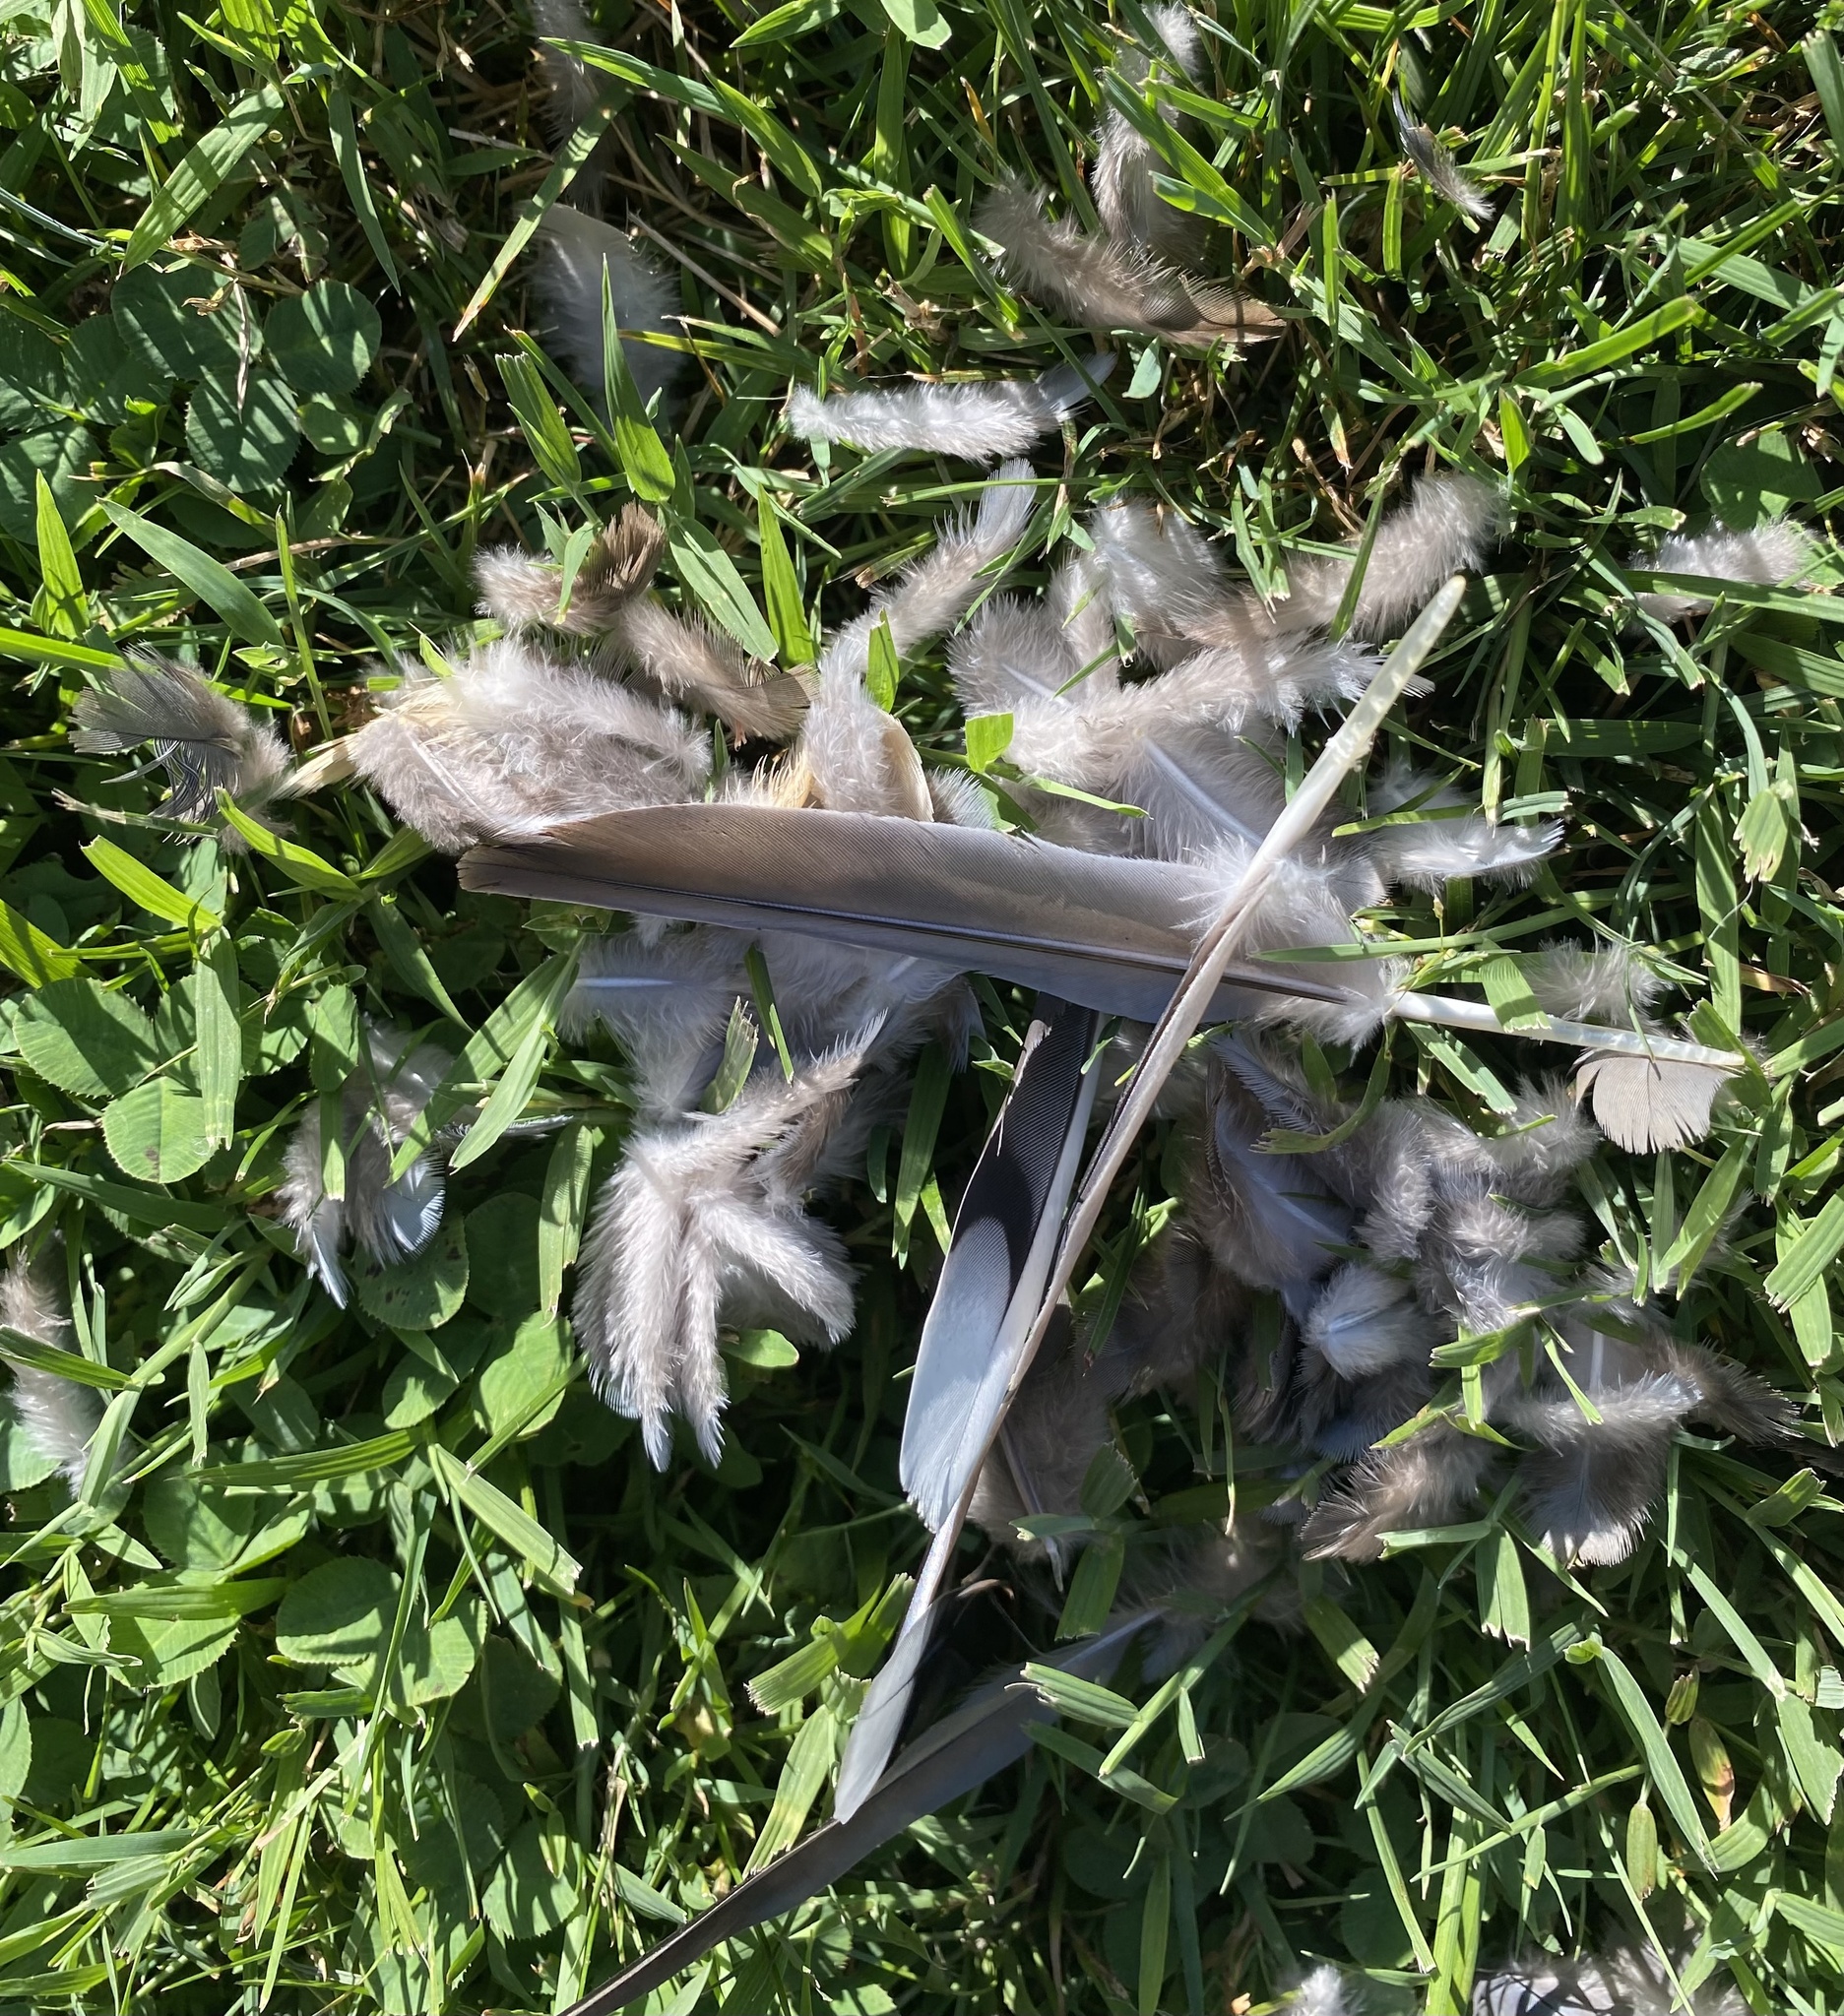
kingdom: Animalia
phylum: Chordata
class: Aves
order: Columbiformes
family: Columbidae
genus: Zenaida
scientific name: Zenaida macroura
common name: Mourning dove
